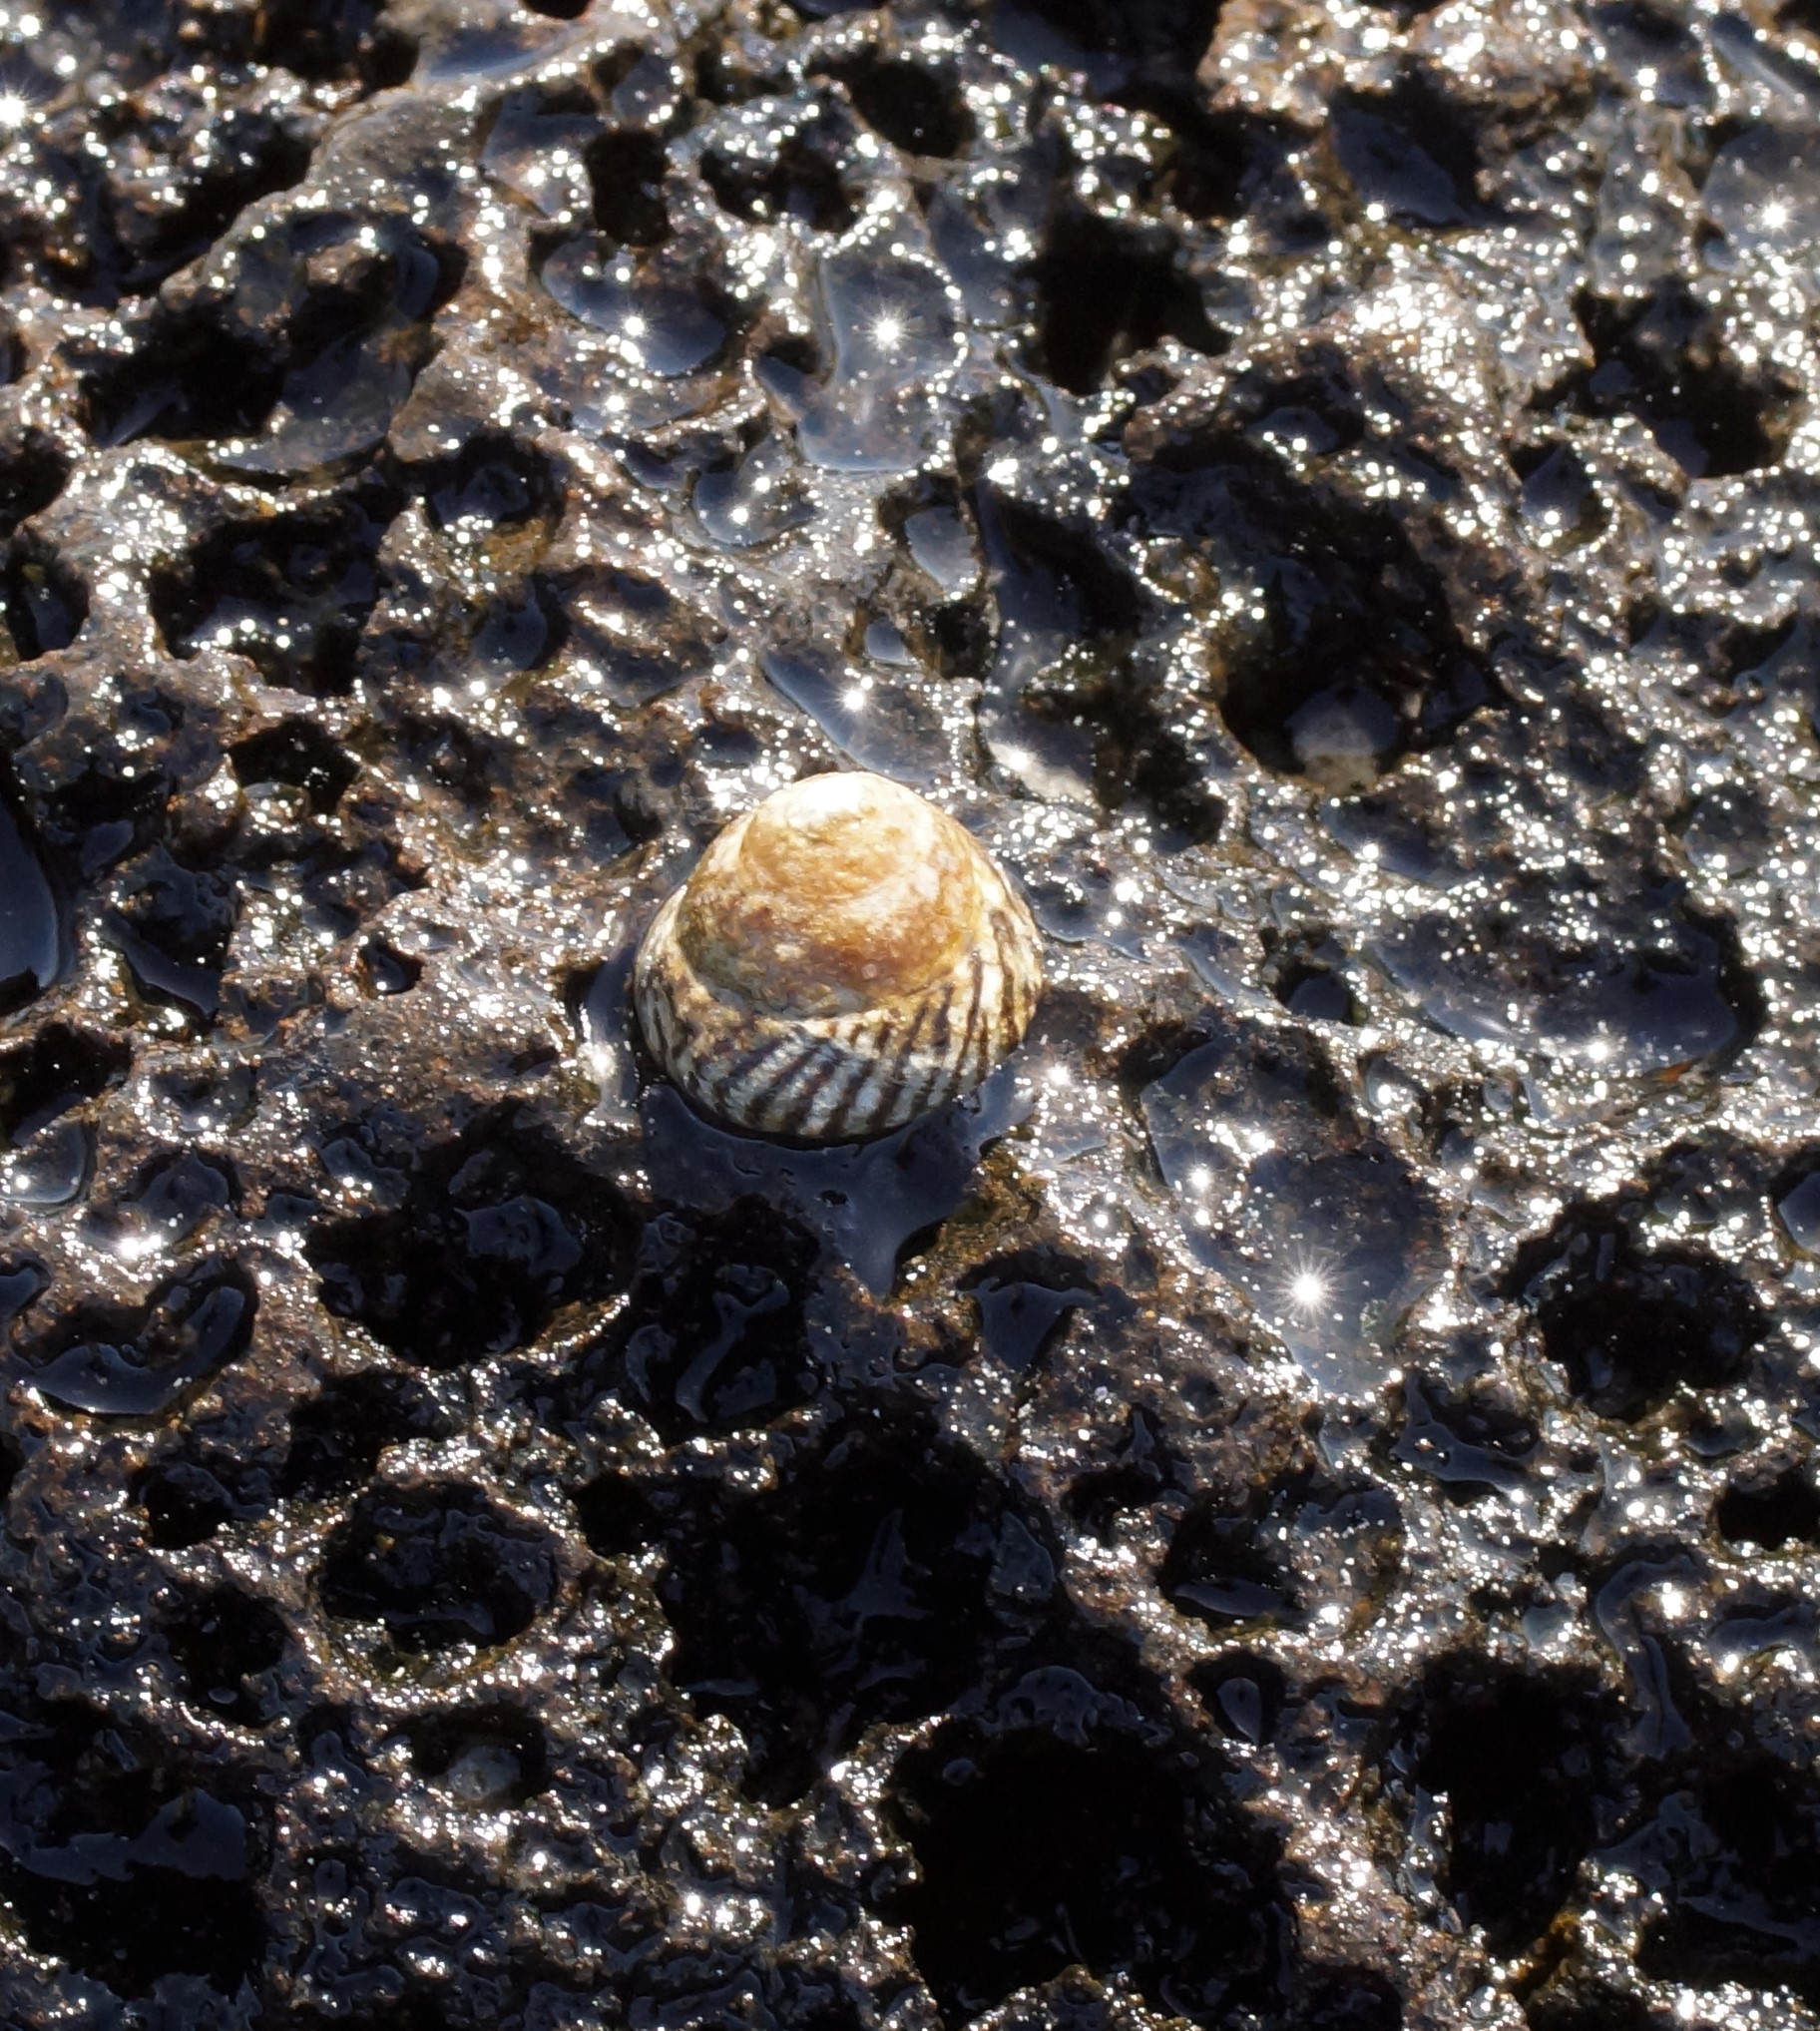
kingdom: Animalia
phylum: Mollusca
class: Gastropoda
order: Littorinimorpha
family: Littorinidae
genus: Bembicium
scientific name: Bembicium nanum
